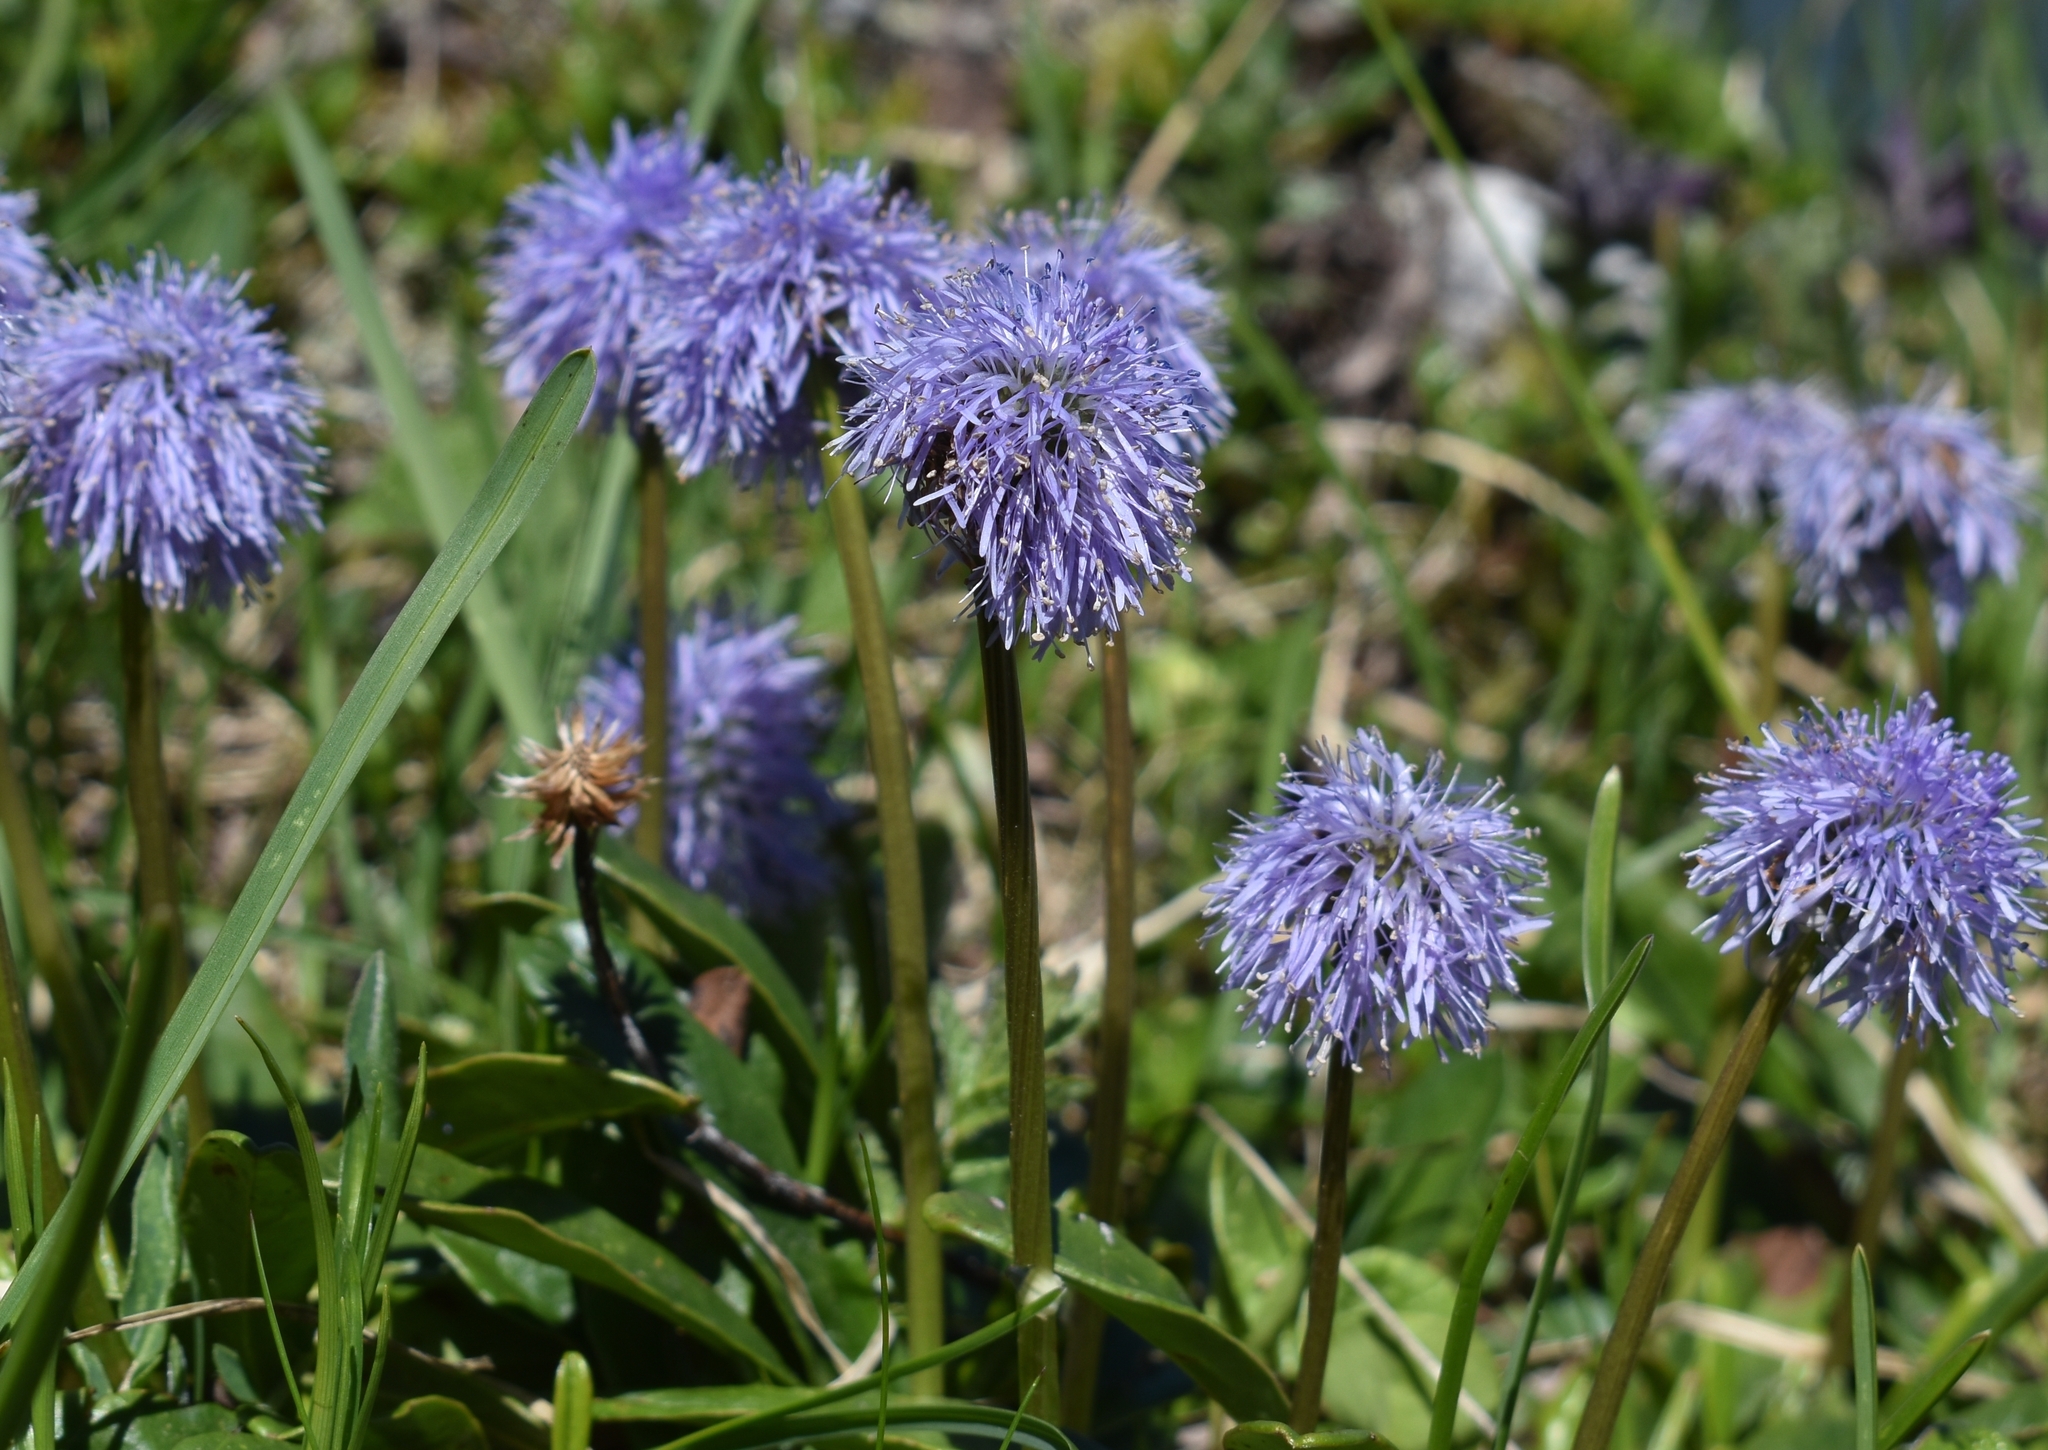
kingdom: Plantae
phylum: Tracheophyta
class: Magnoliopsida
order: Lamiales
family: Plantaginaceae
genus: Globularia
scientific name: Globularia nudicaulis
